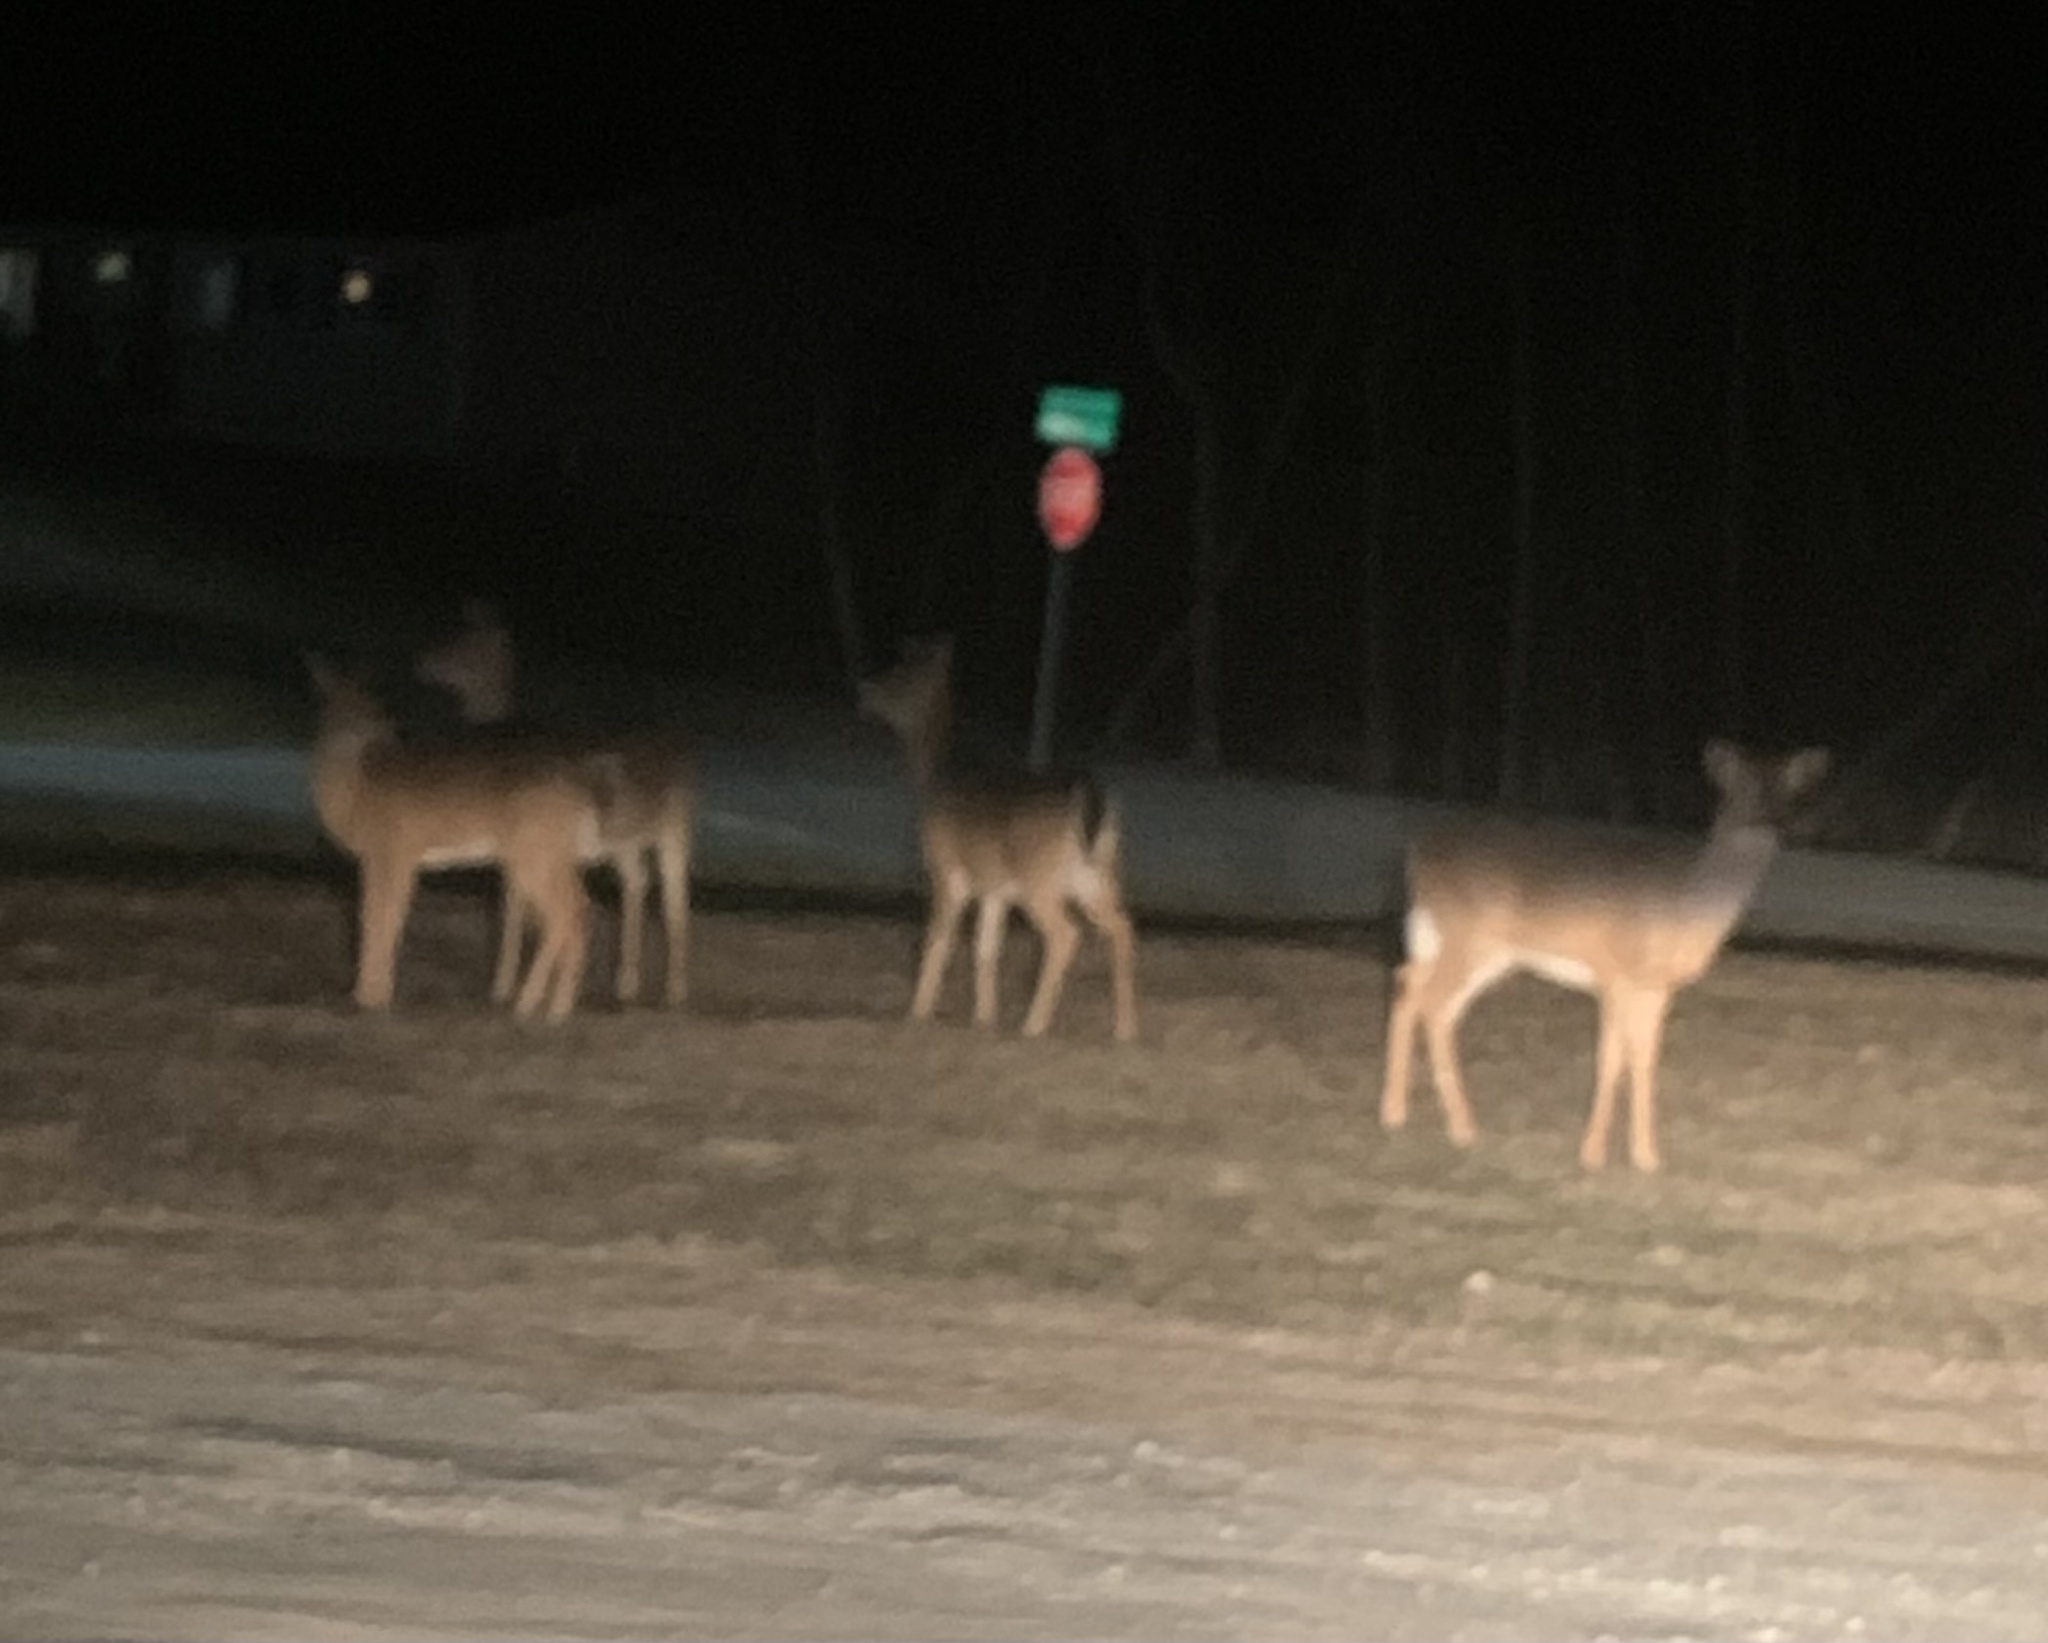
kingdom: Animalia
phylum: Chordata
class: Mammalia
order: Artiodactyla
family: Cervidae
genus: Odocoileus
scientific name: Odocoileus virginianus
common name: White-tailed deer
